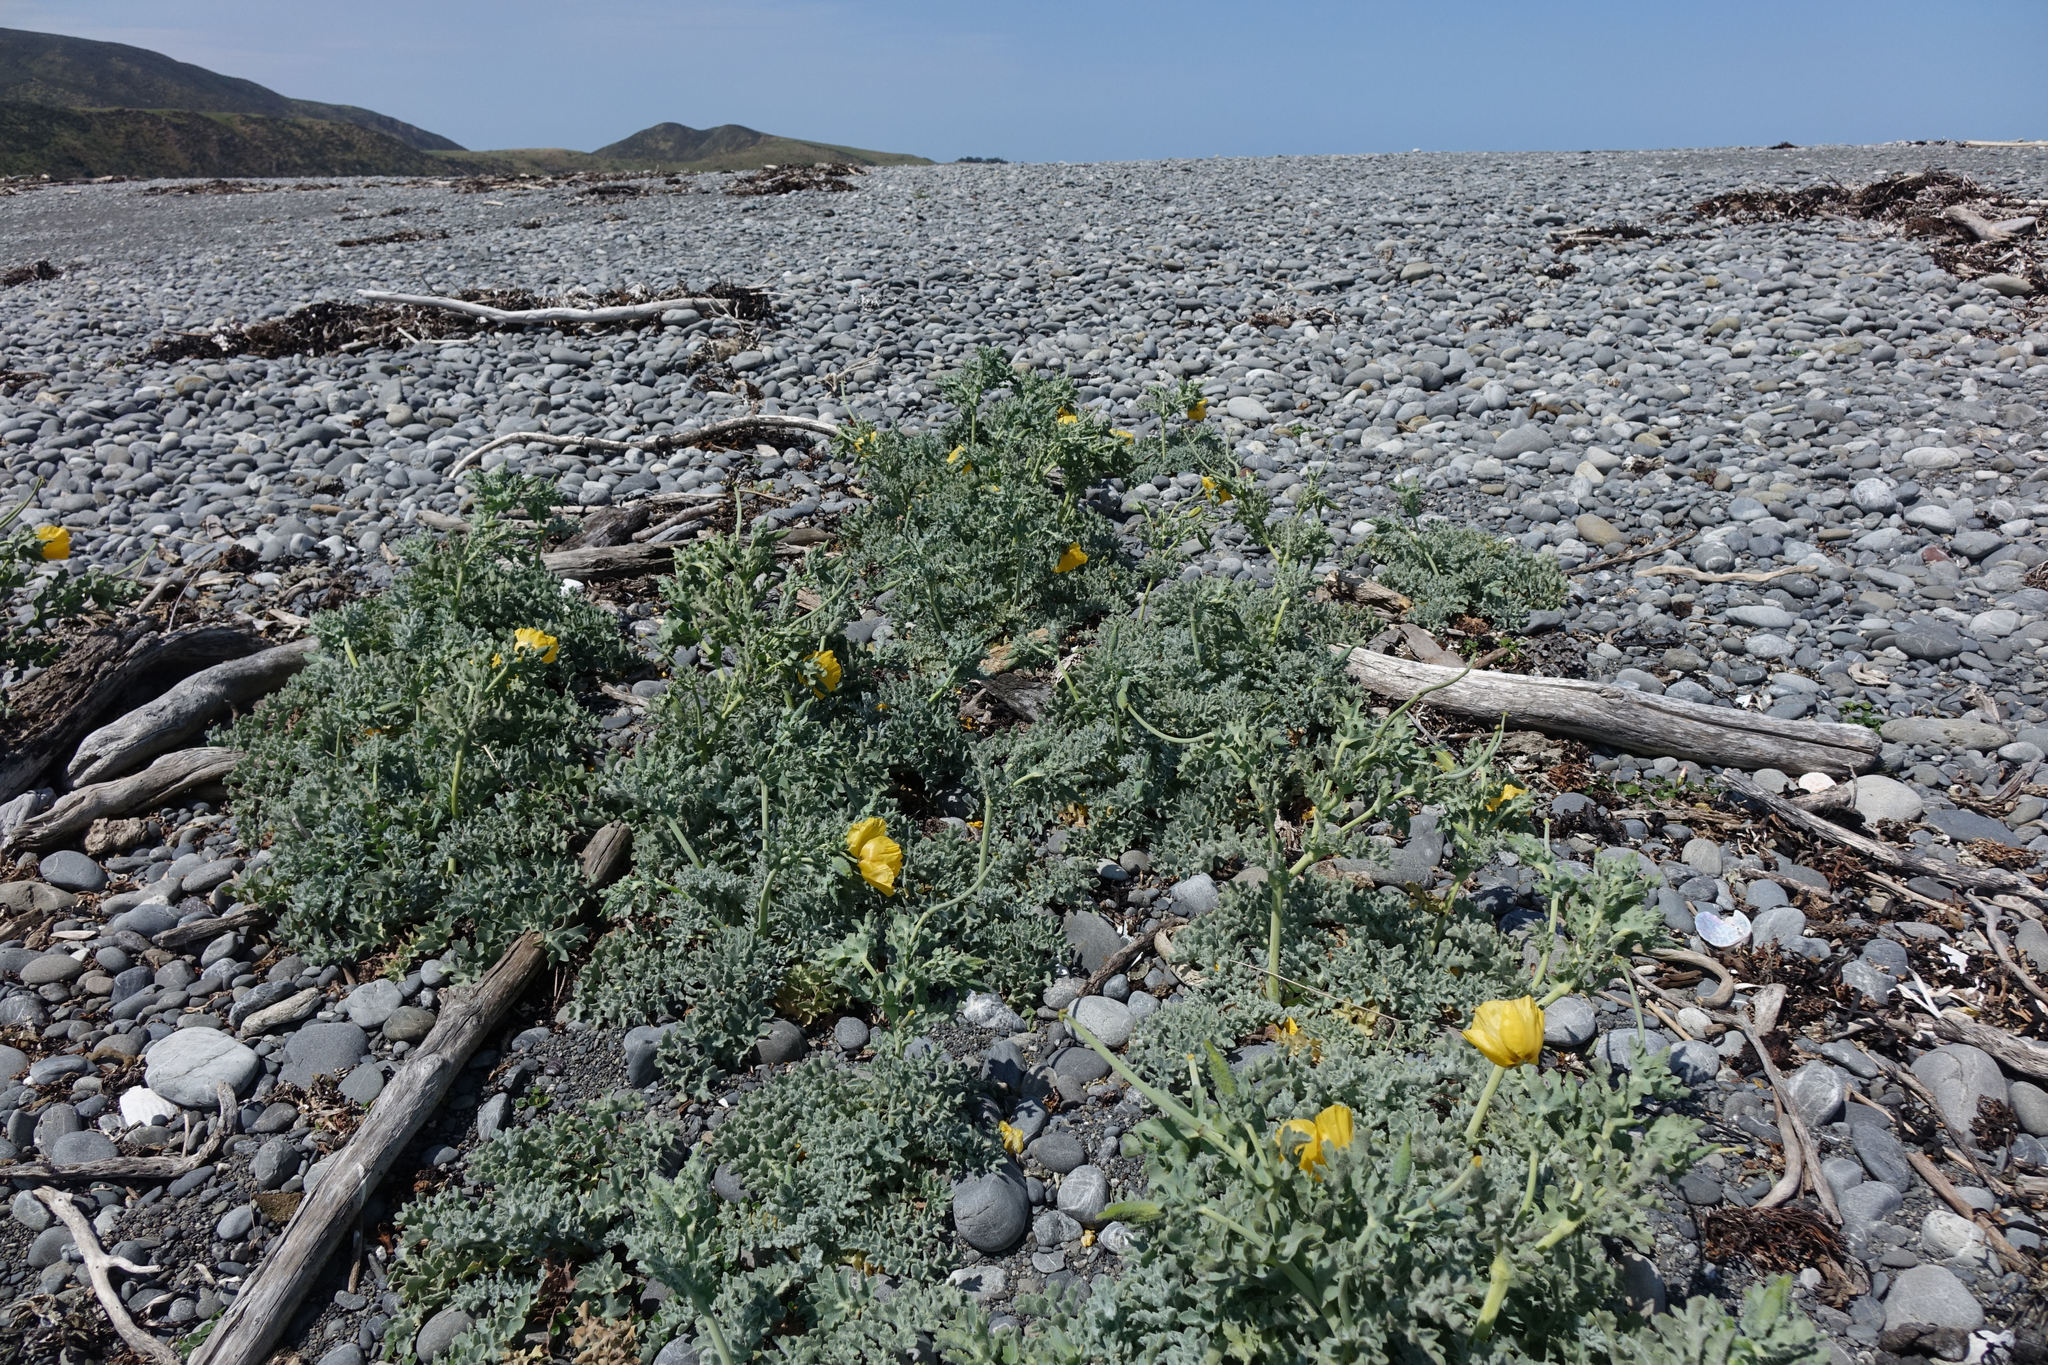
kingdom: Plantae
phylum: Tracheophyta
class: Magnoliopsida
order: Ranunculales
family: Papaveraceae
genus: Glaucium
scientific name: Glaucium flavum
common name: Yellow horned-poppy
